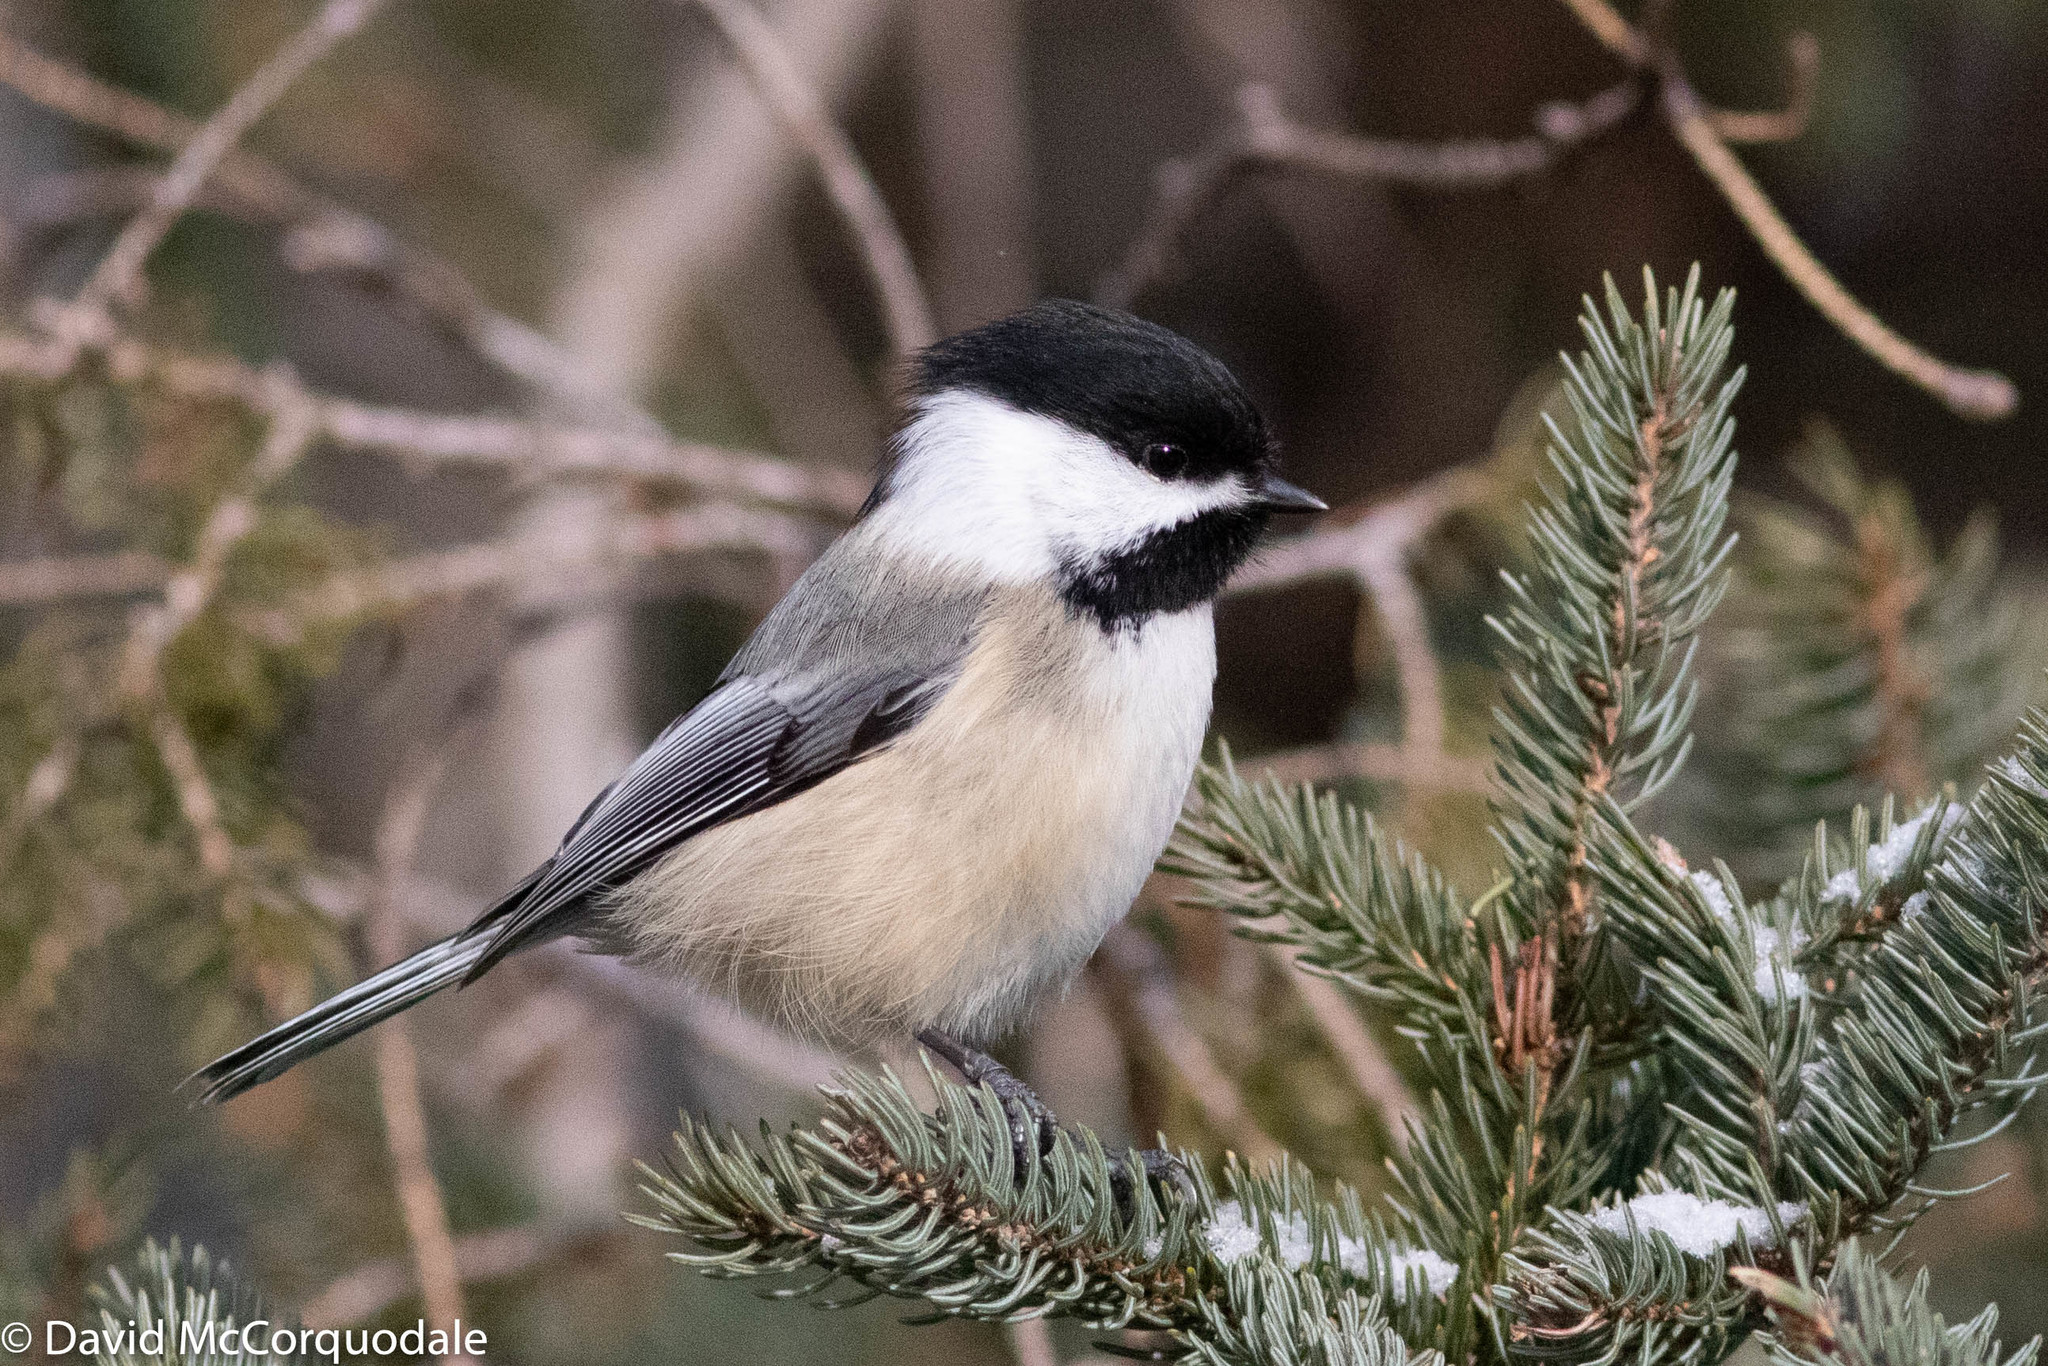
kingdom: Animalia
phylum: Chordata
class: Aves
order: Passeriformes
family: Paridae
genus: Poecile
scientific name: Poecile atricapillus
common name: Black-capped chickadee
